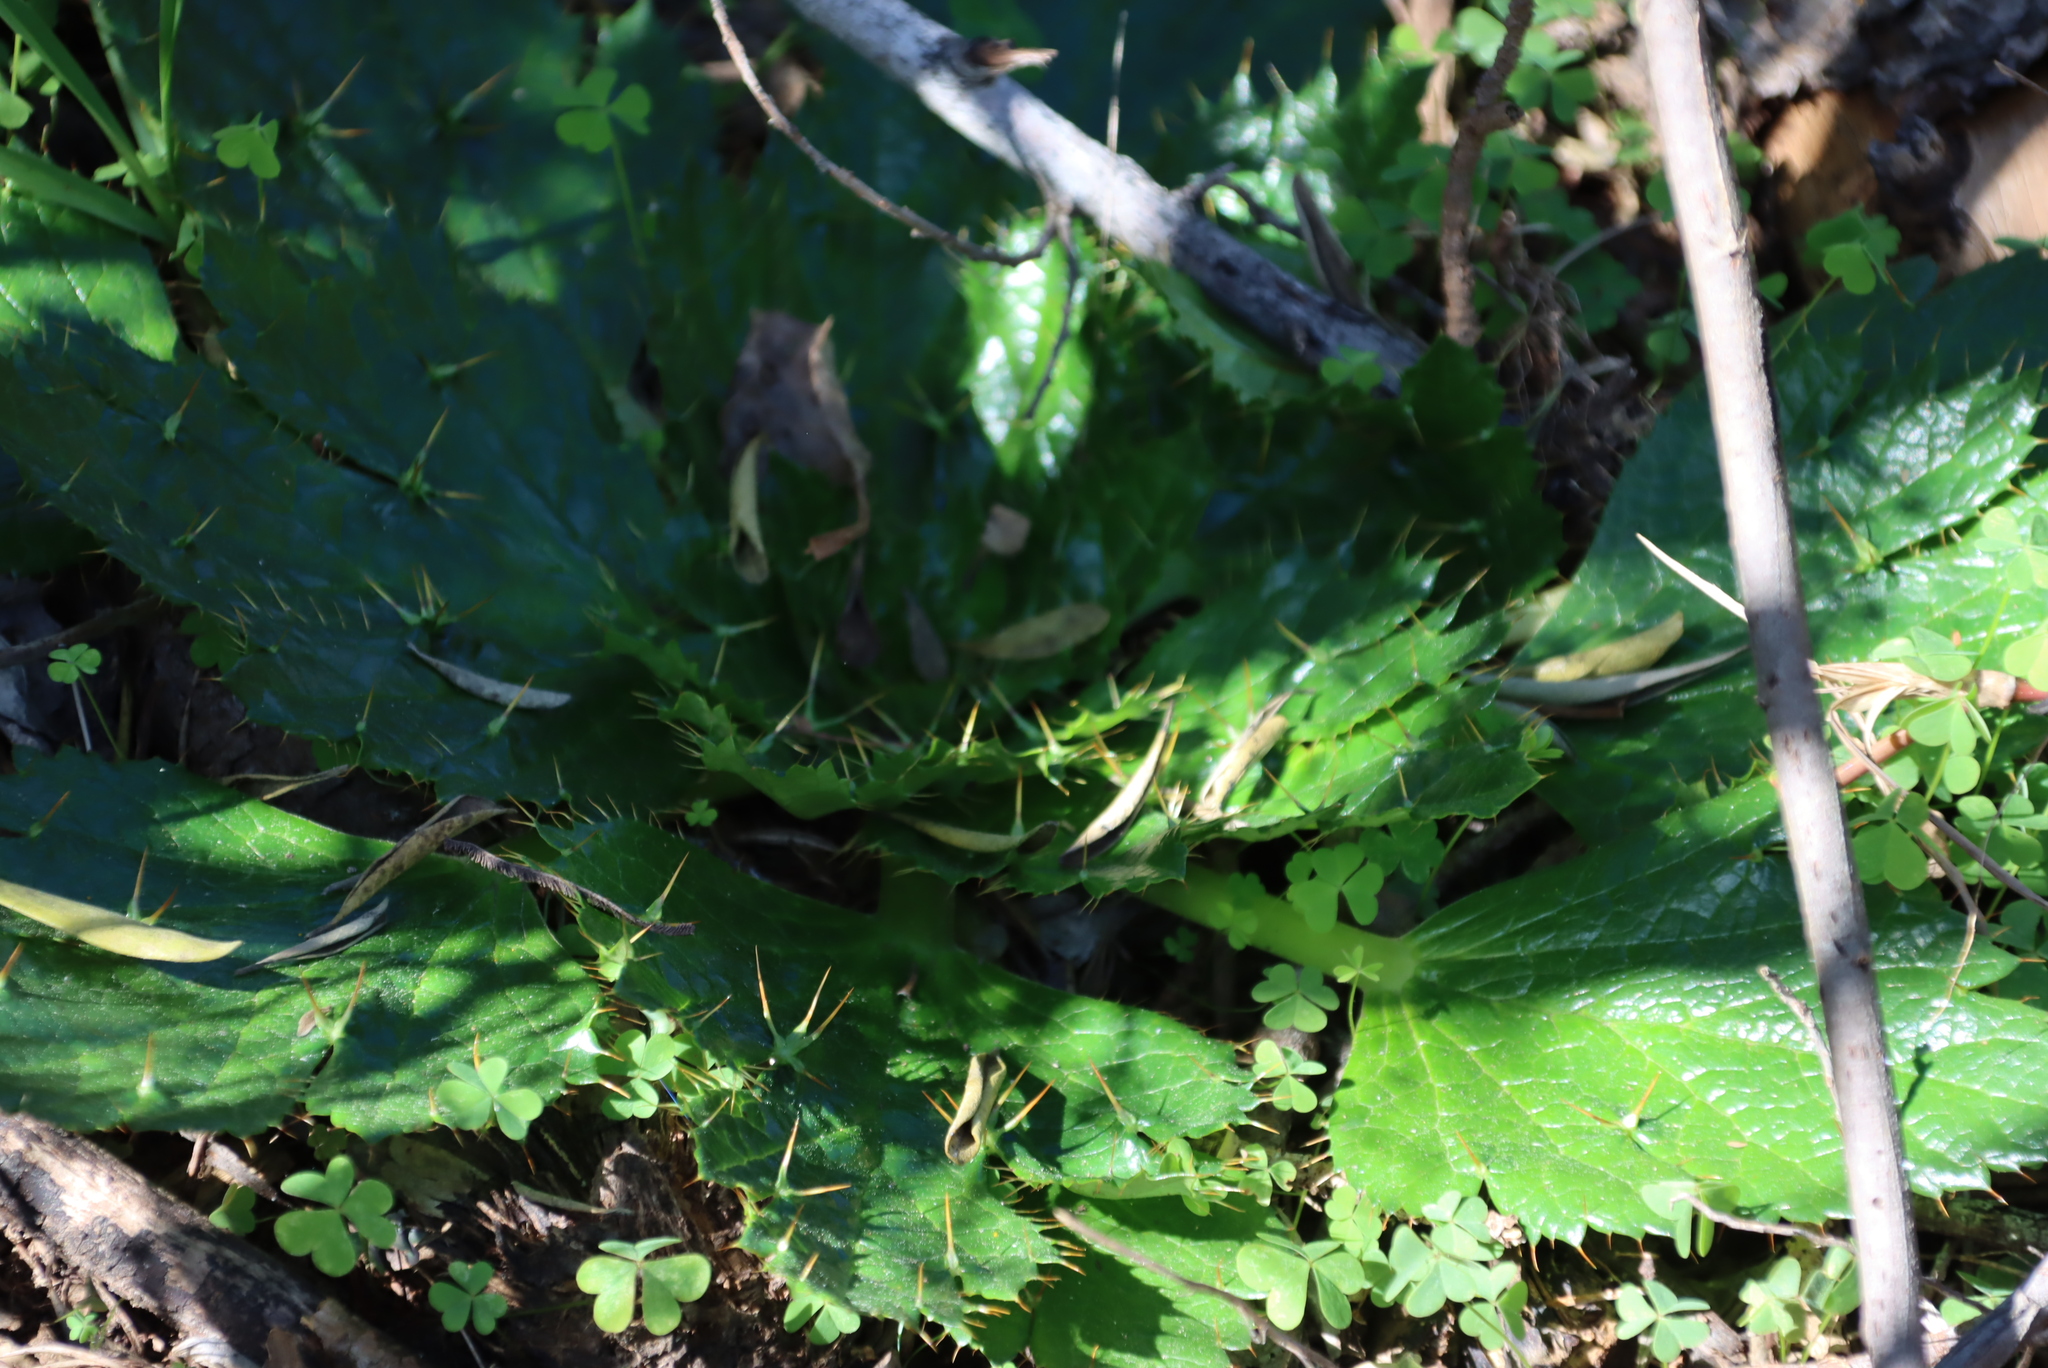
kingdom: Plantae
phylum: Tracheophyta
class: Magnoliopsida
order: Apiales
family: Apiaceae
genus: Arctopus
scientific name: Arctopus echinatus
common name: Platdoring
